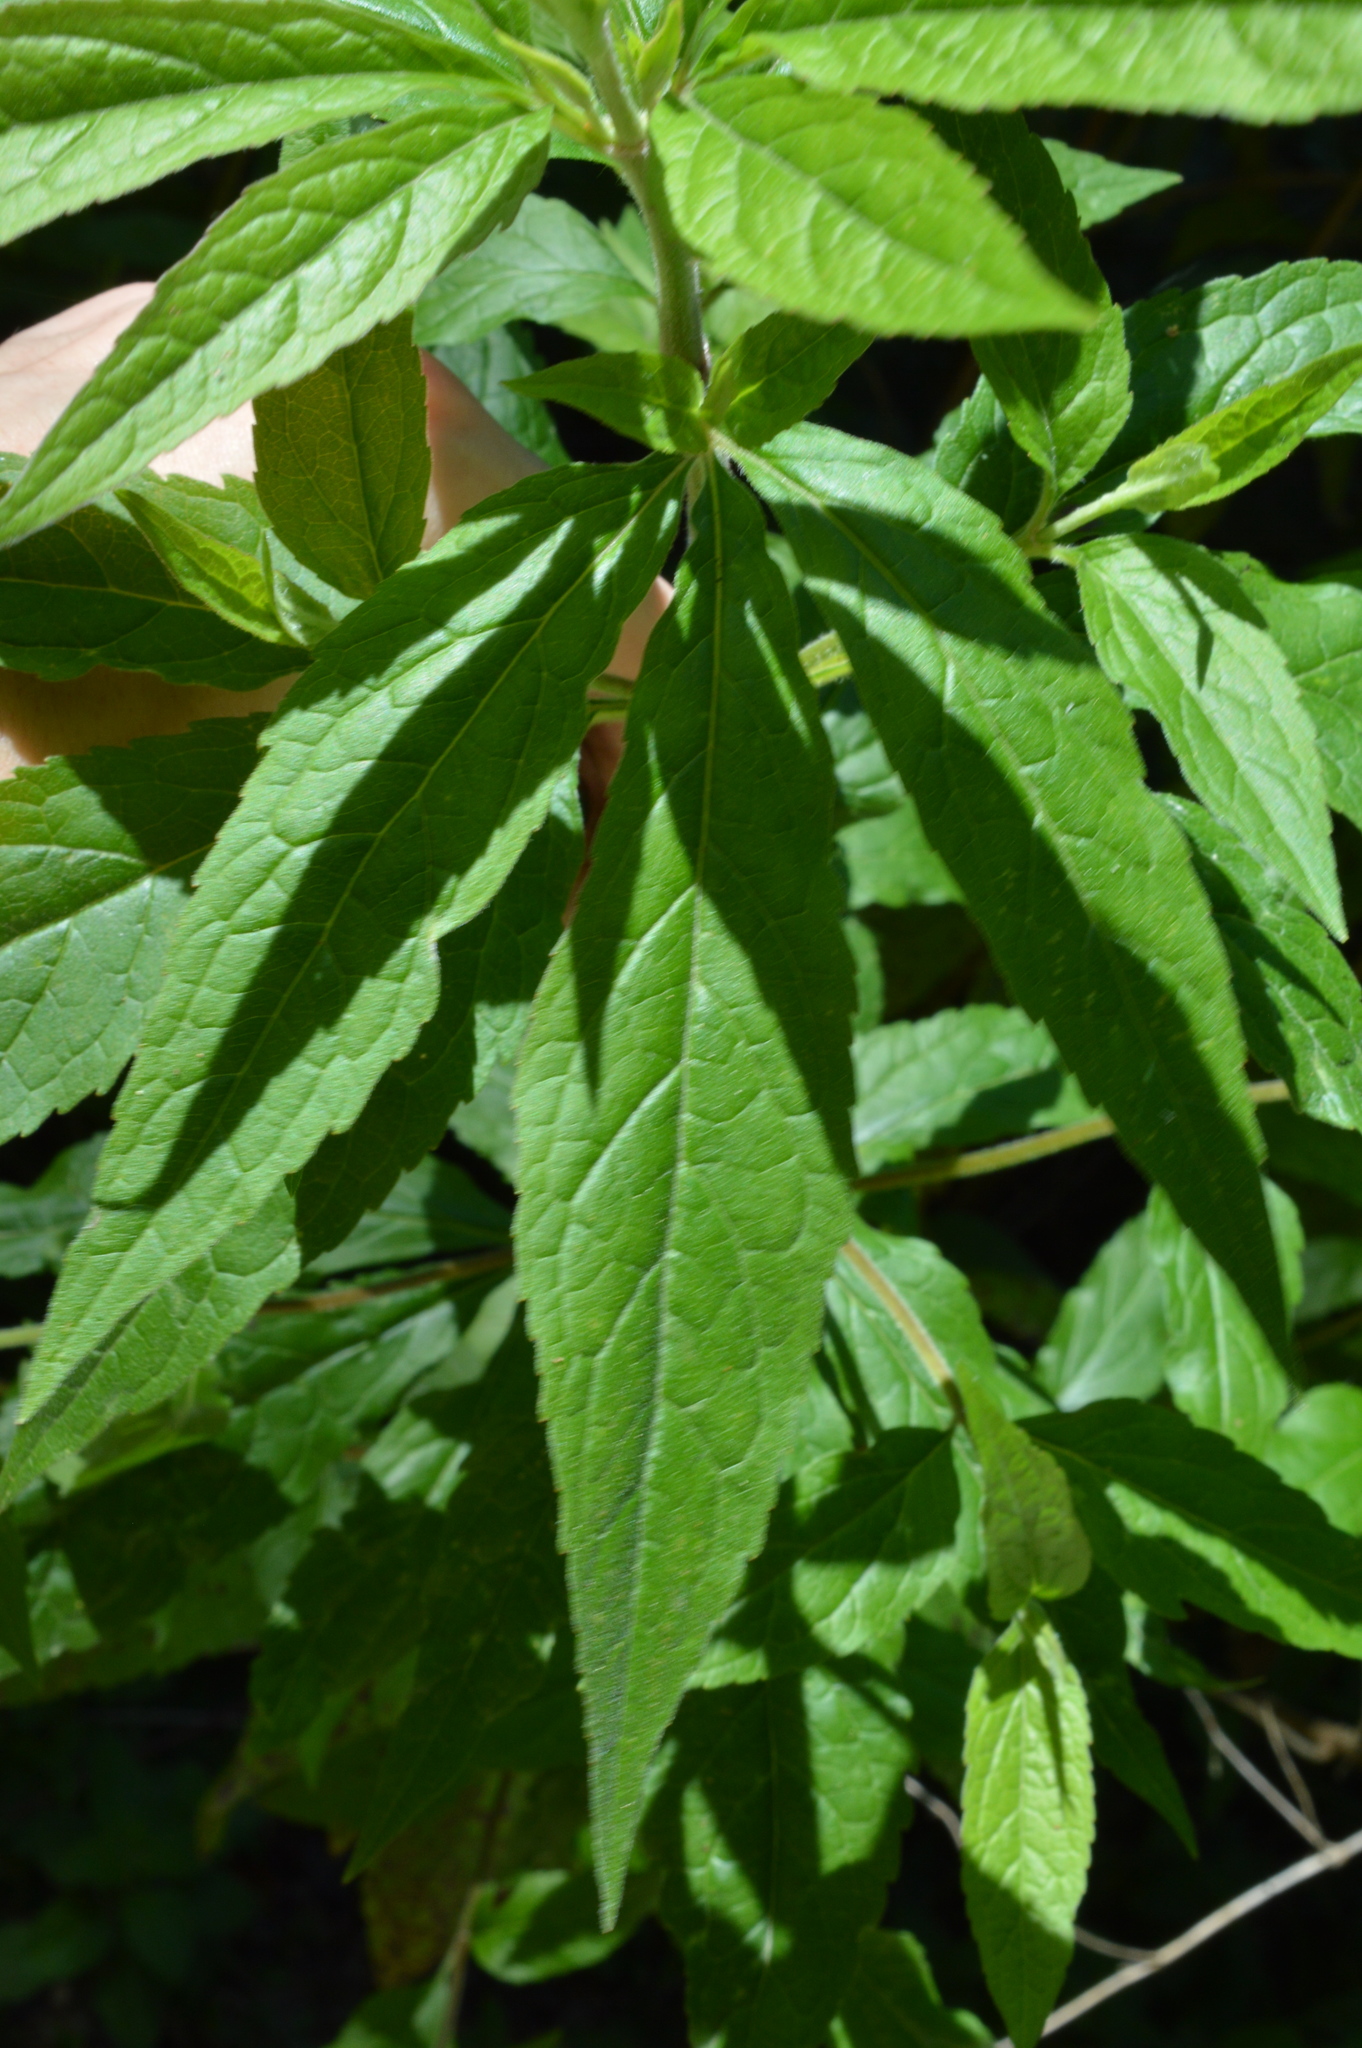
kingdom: Plantae
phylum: Tracheophyta
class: Magnoliopsida
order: Asterales
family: Asteraceae
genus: Eupatorium
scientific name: Eupatorium cannabinum
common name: Hemp-agrimony
